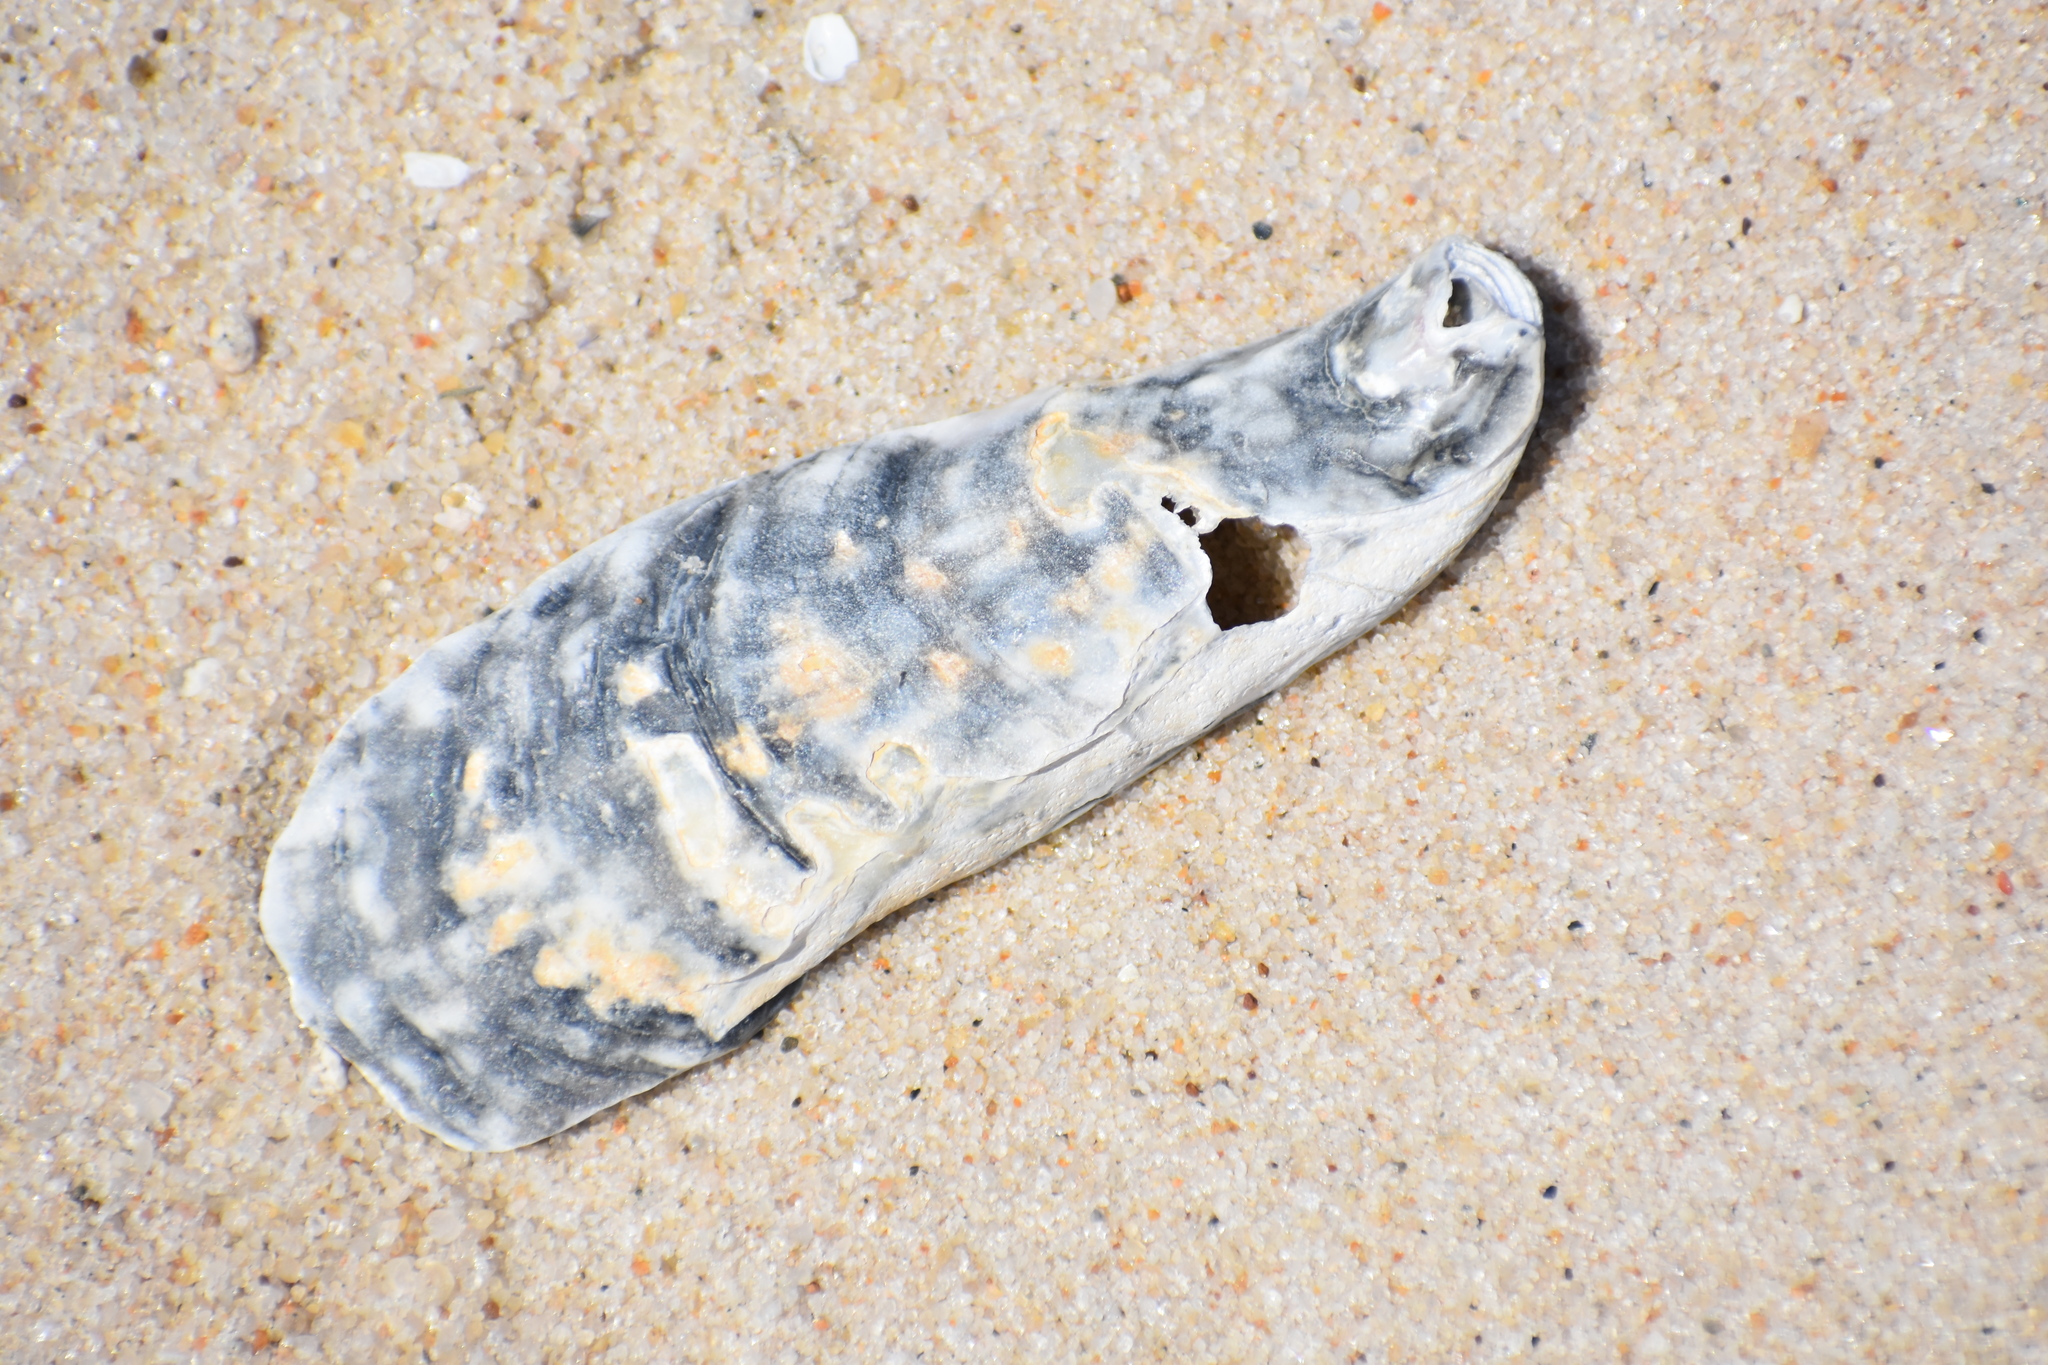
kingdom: Animalia
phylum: Mollusca
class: Bivalvia
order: Ostreida
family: Ostreidae
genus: Crassostrea
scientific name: Crassostrea virginica
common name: American oyster
